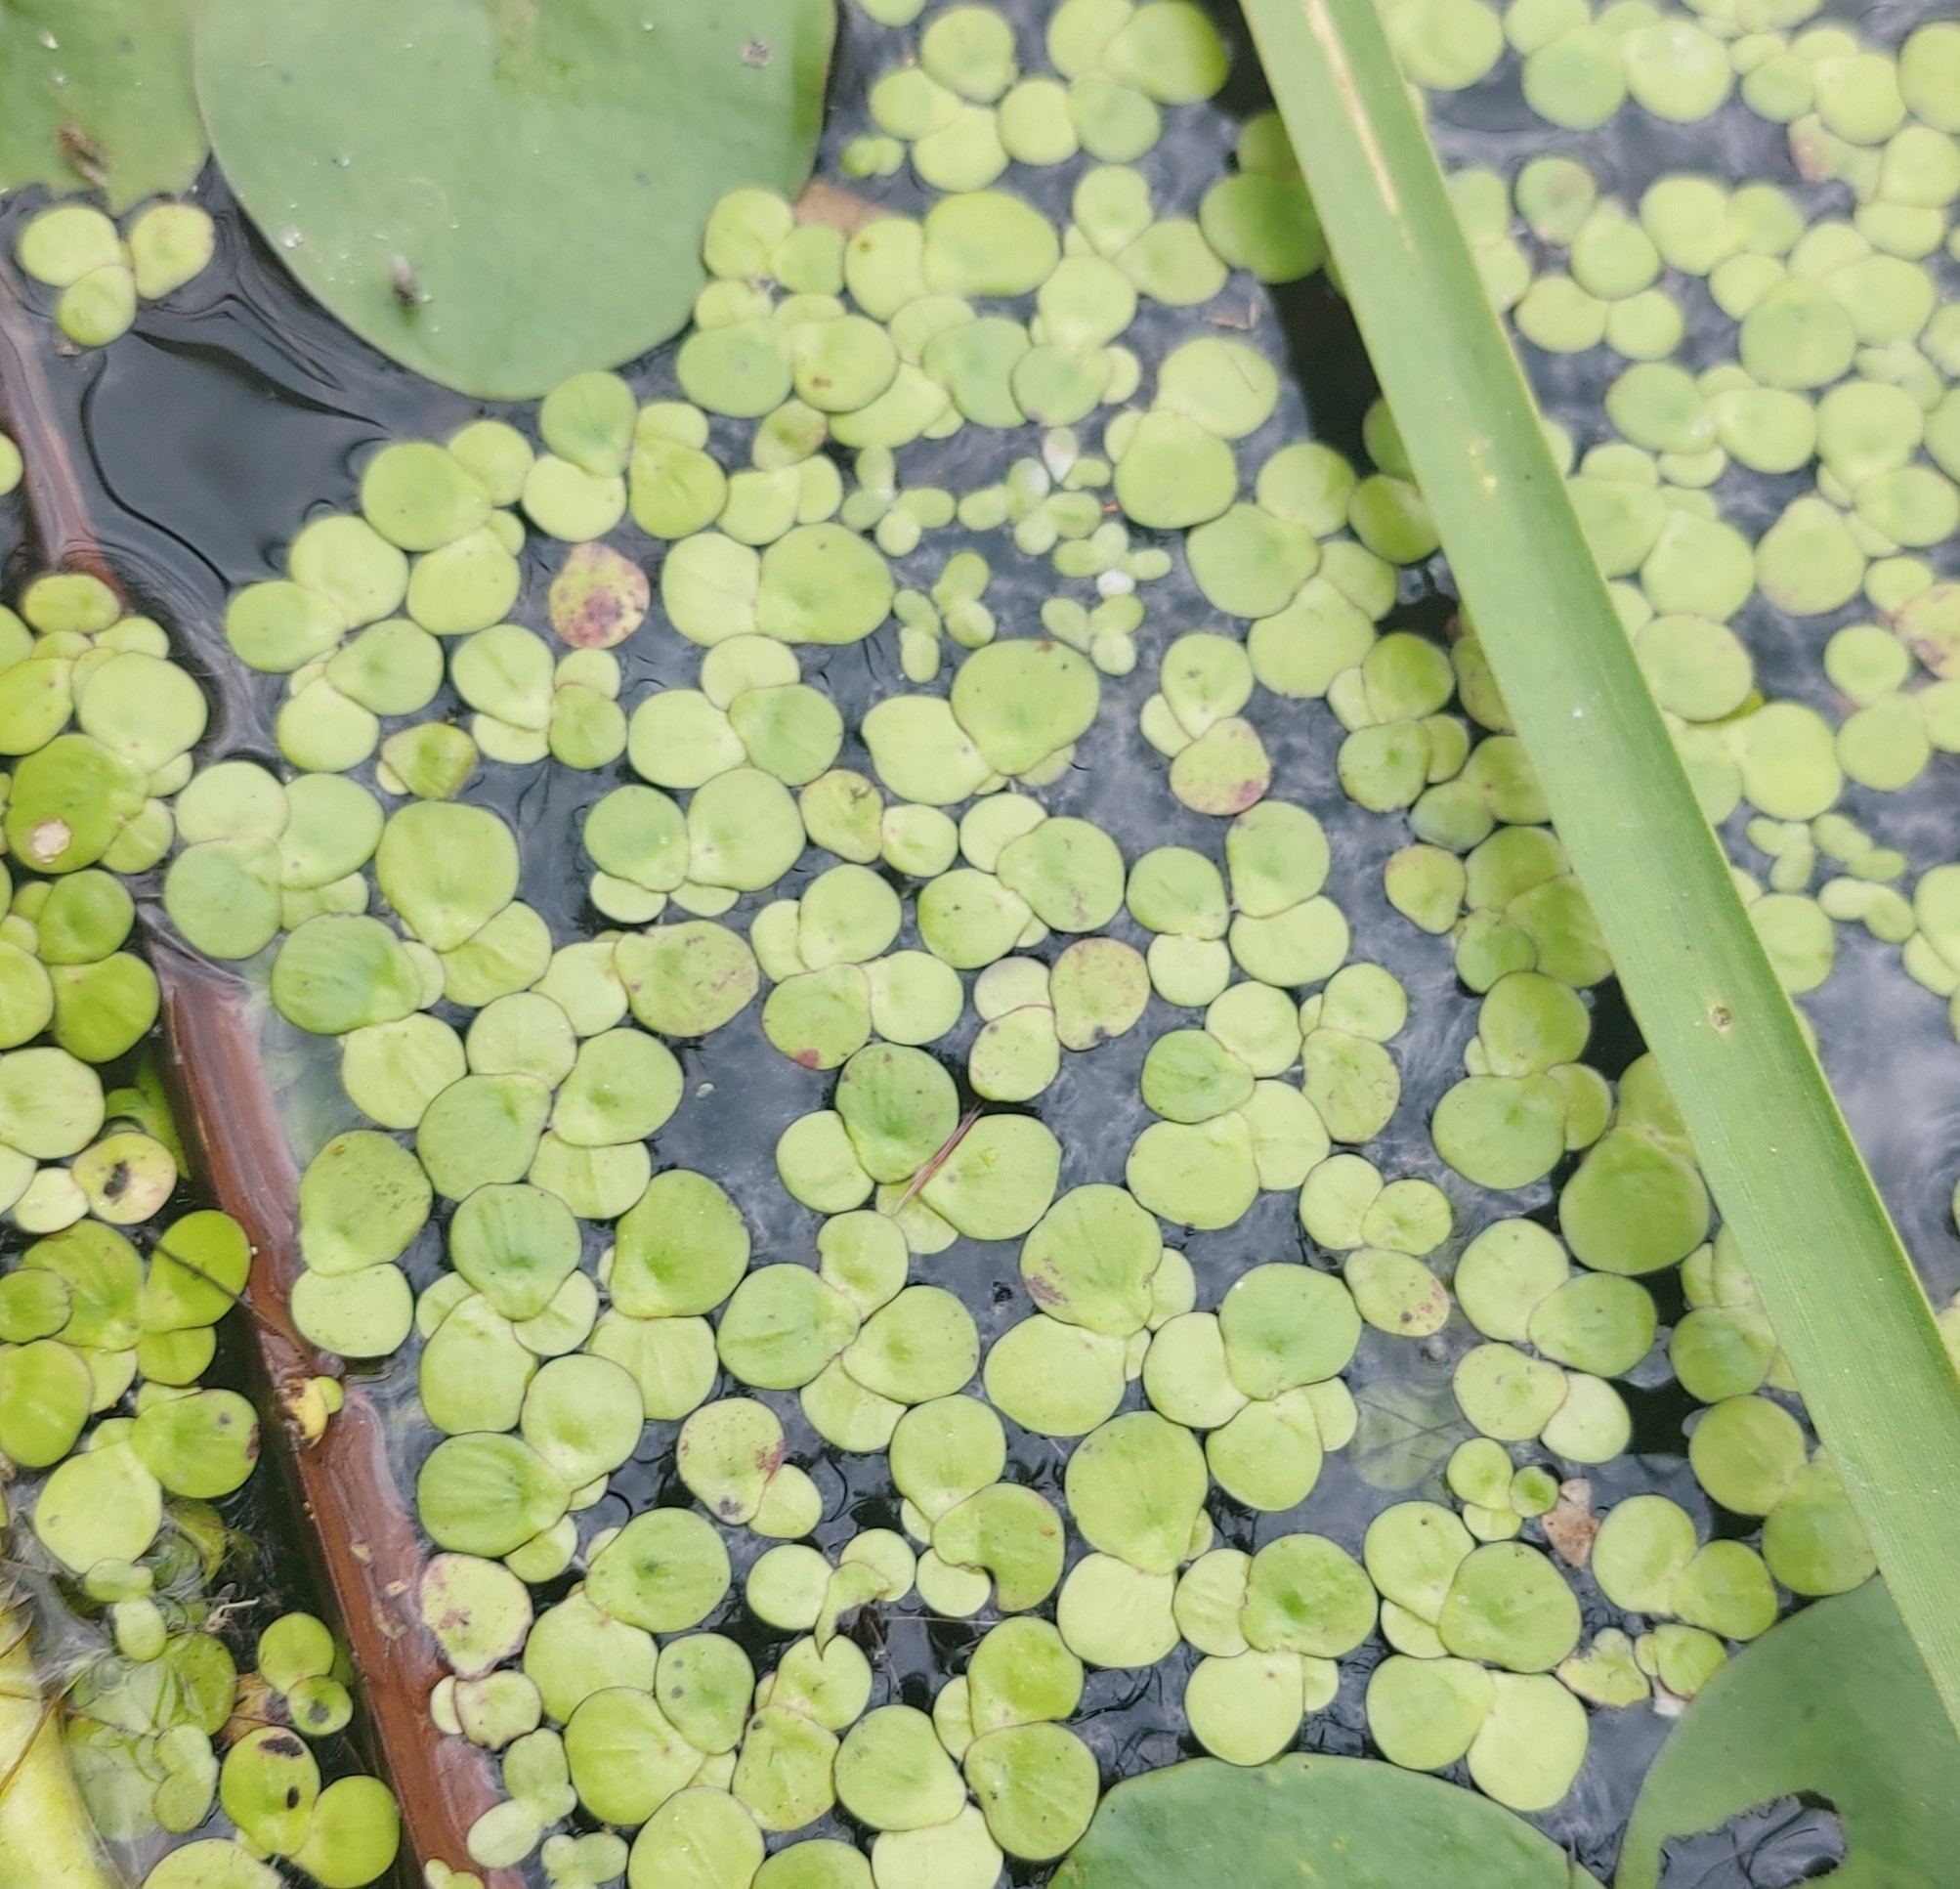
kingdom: Plantae
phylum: Tracheophyta
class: Liliopsida
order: Alismatales
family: Araceae
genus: Spirodela
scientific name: Spirodela polyrhiza
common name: Great duckweed
